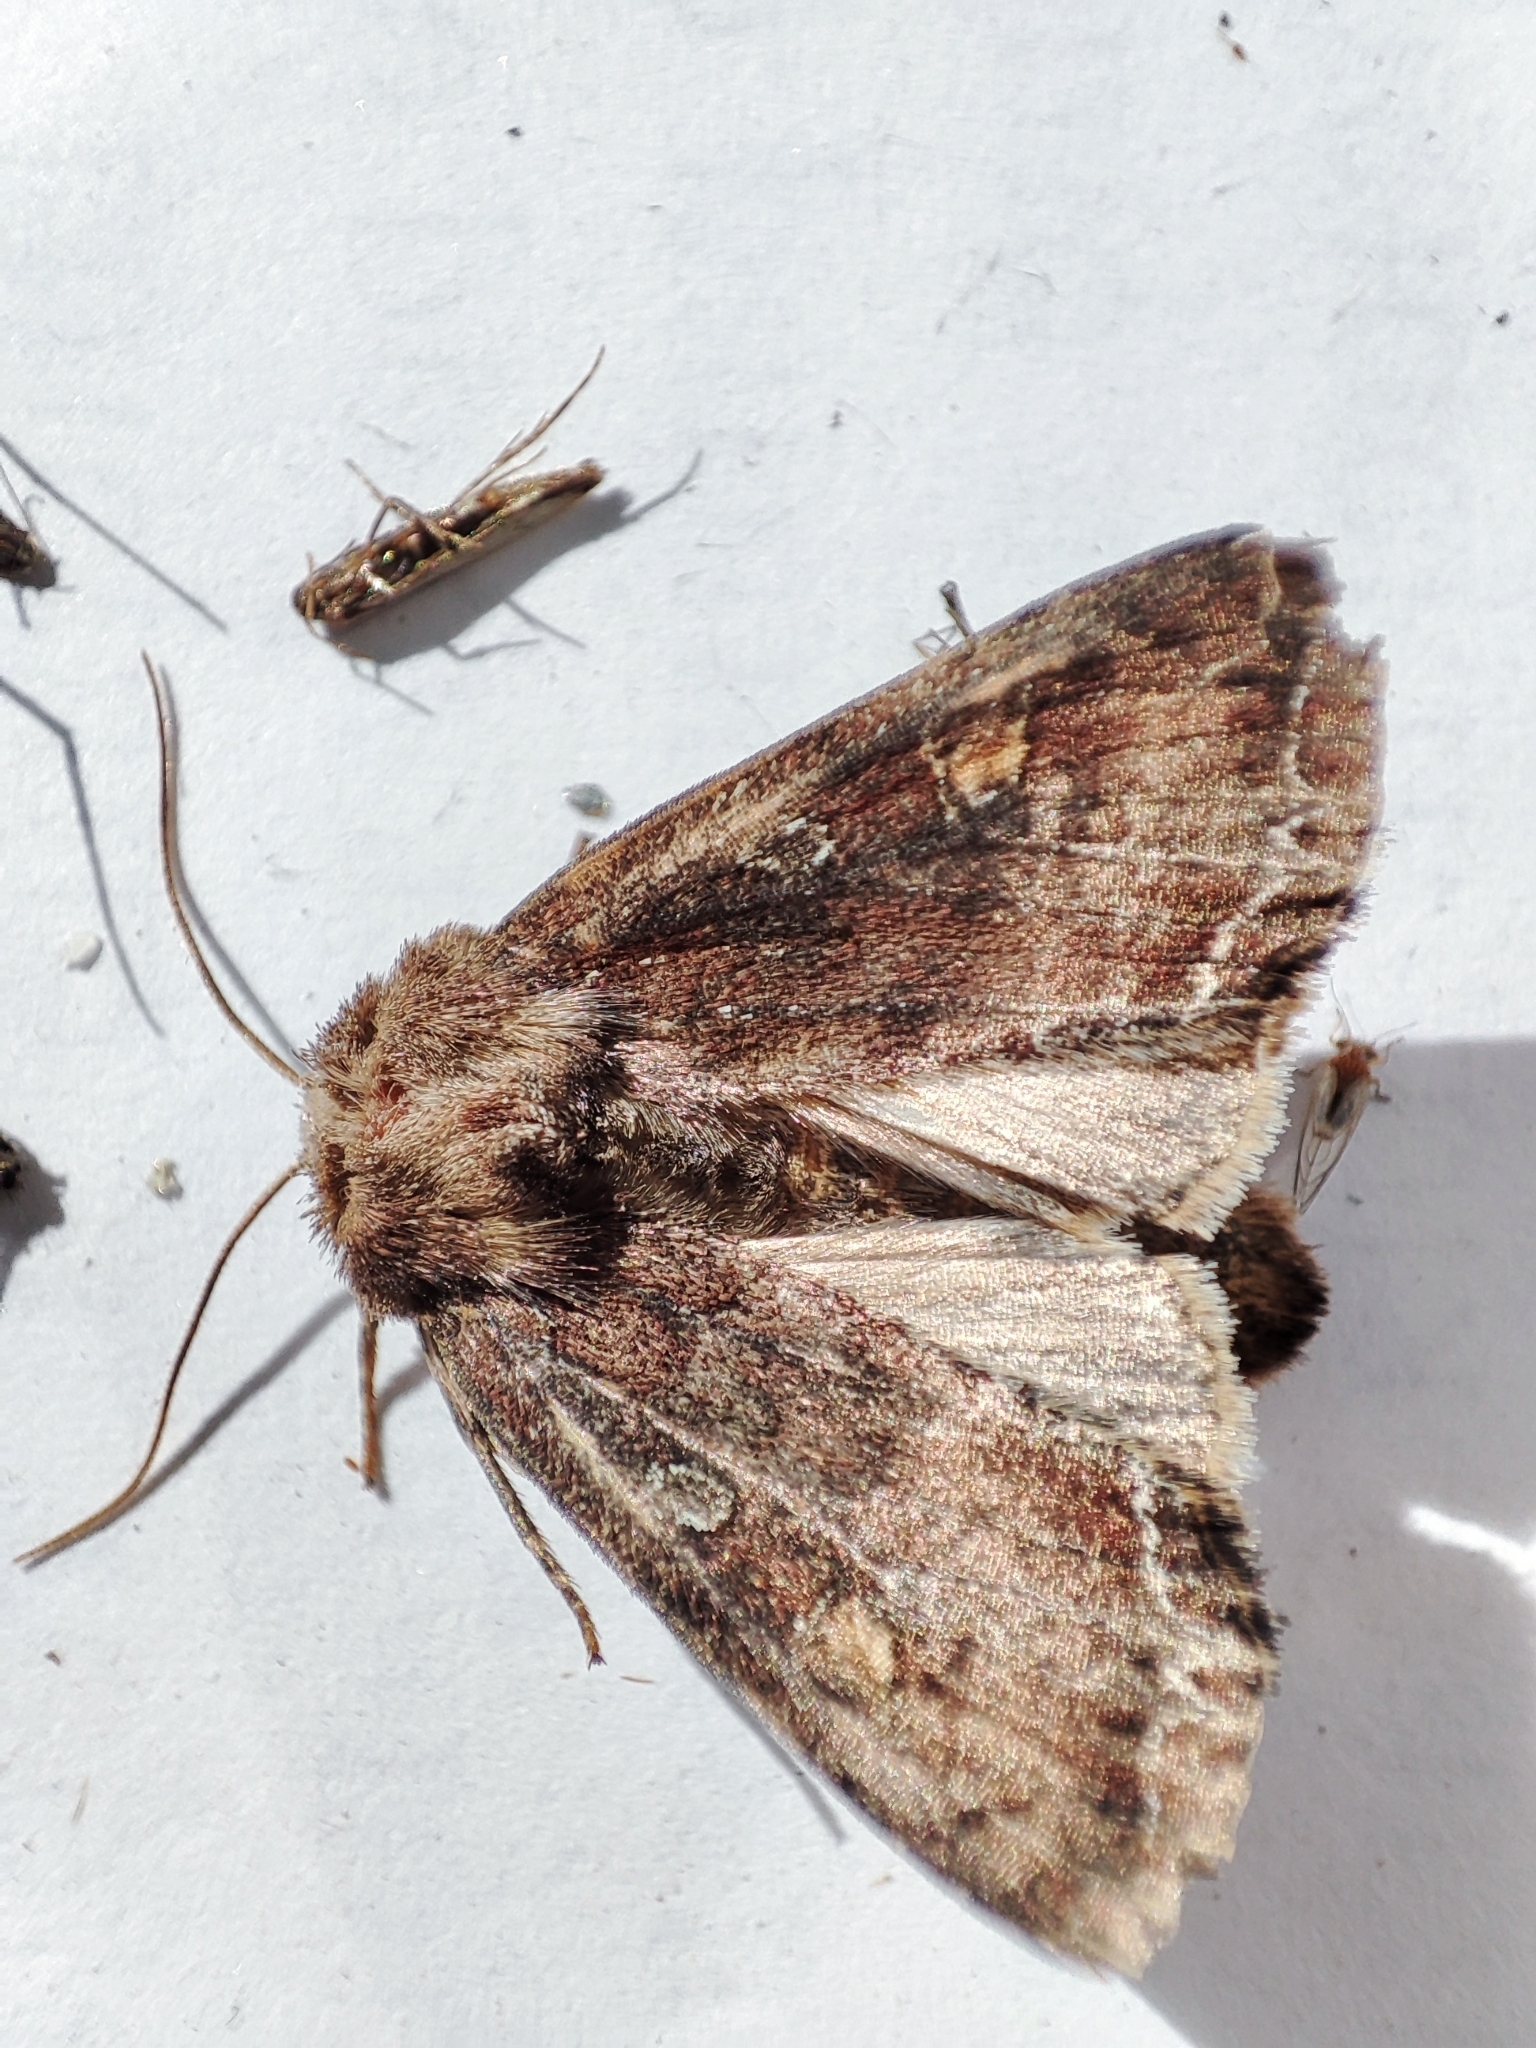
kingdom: Animalia
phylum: Arthropoda
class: Insecta
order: Lepidoptera
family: Noctuidae
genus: Lacanobia
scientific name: Lacanobia oleracea
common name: Bright-line brown-eye
